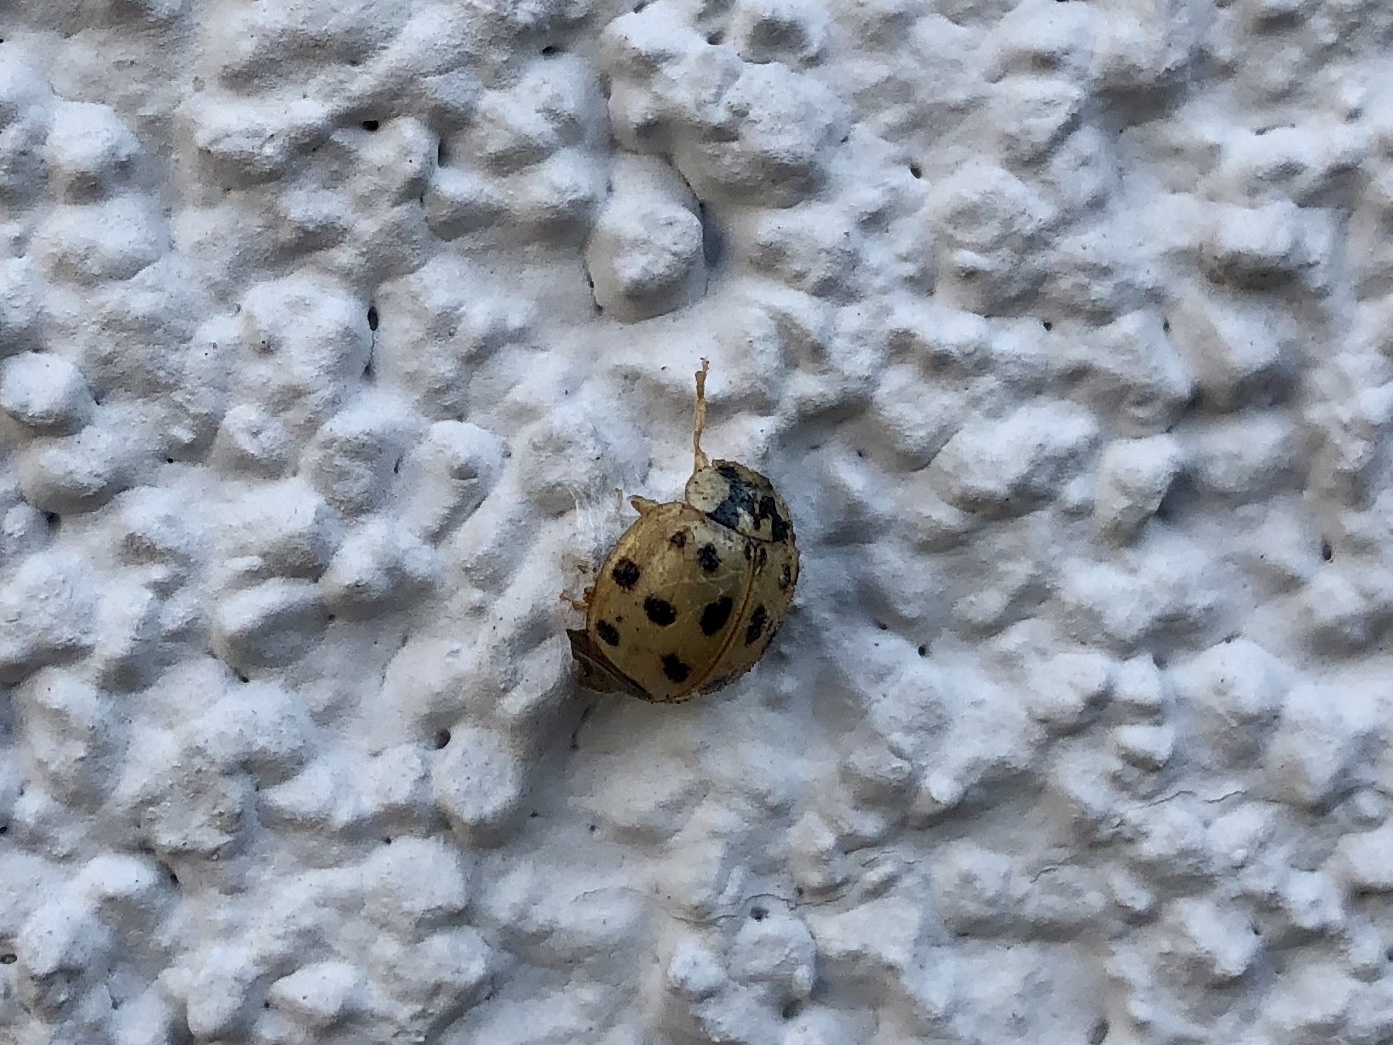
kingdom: Animalia
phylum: Arthropoda
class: Insecta
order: Coleoptera
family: Coccinellidae
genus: Harmonia
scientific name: Harmonia axyridis
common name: Harlequin ladybird
